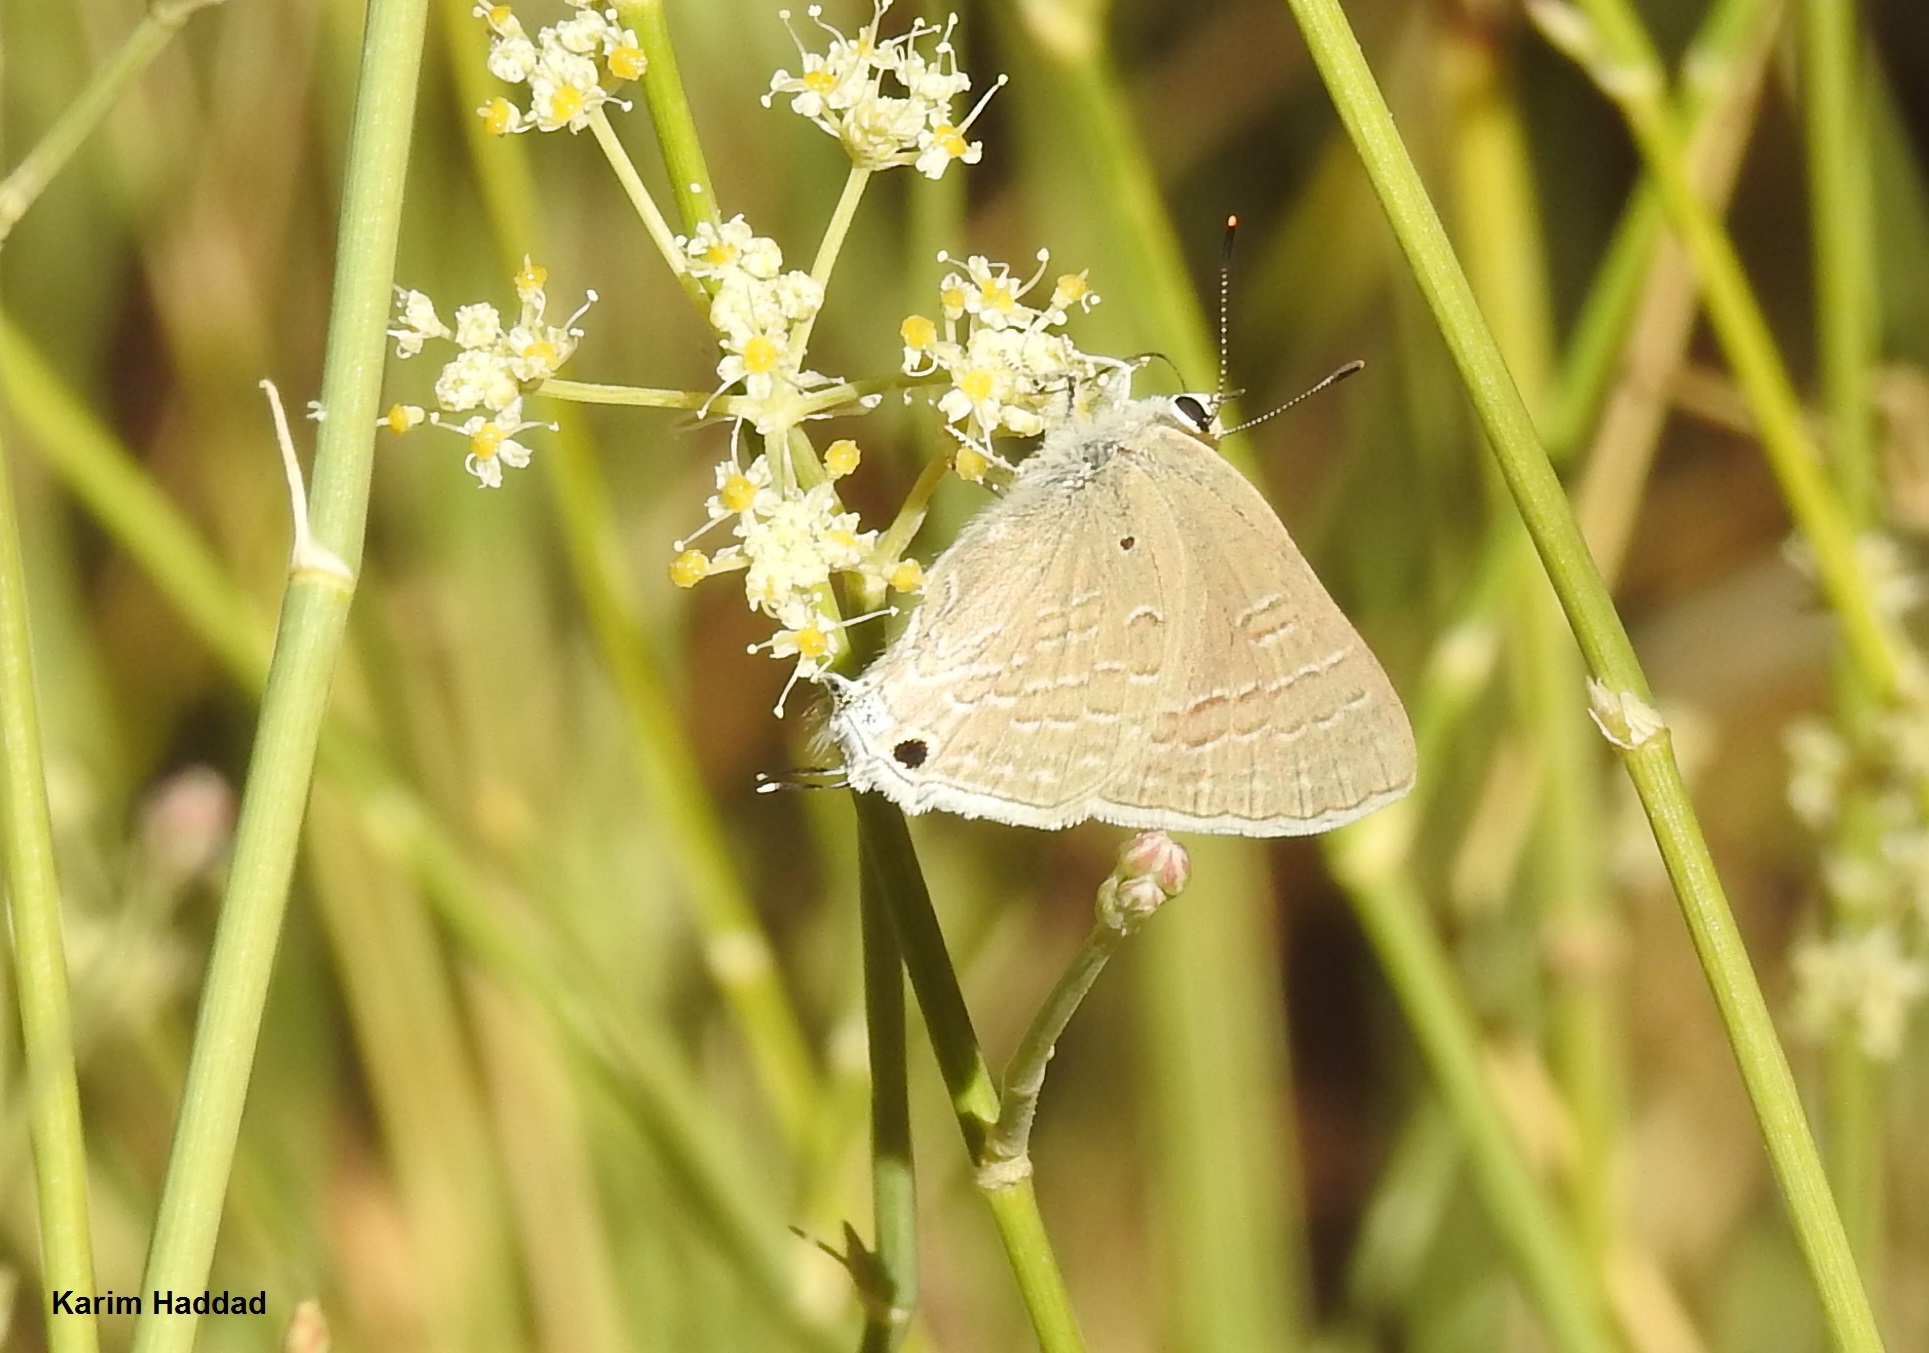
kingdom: Animalia
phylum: Arthropoda
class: Insecta
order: Lepidoptera
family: Lycaenidae
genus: Deudorix
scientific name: Deudorix livia
